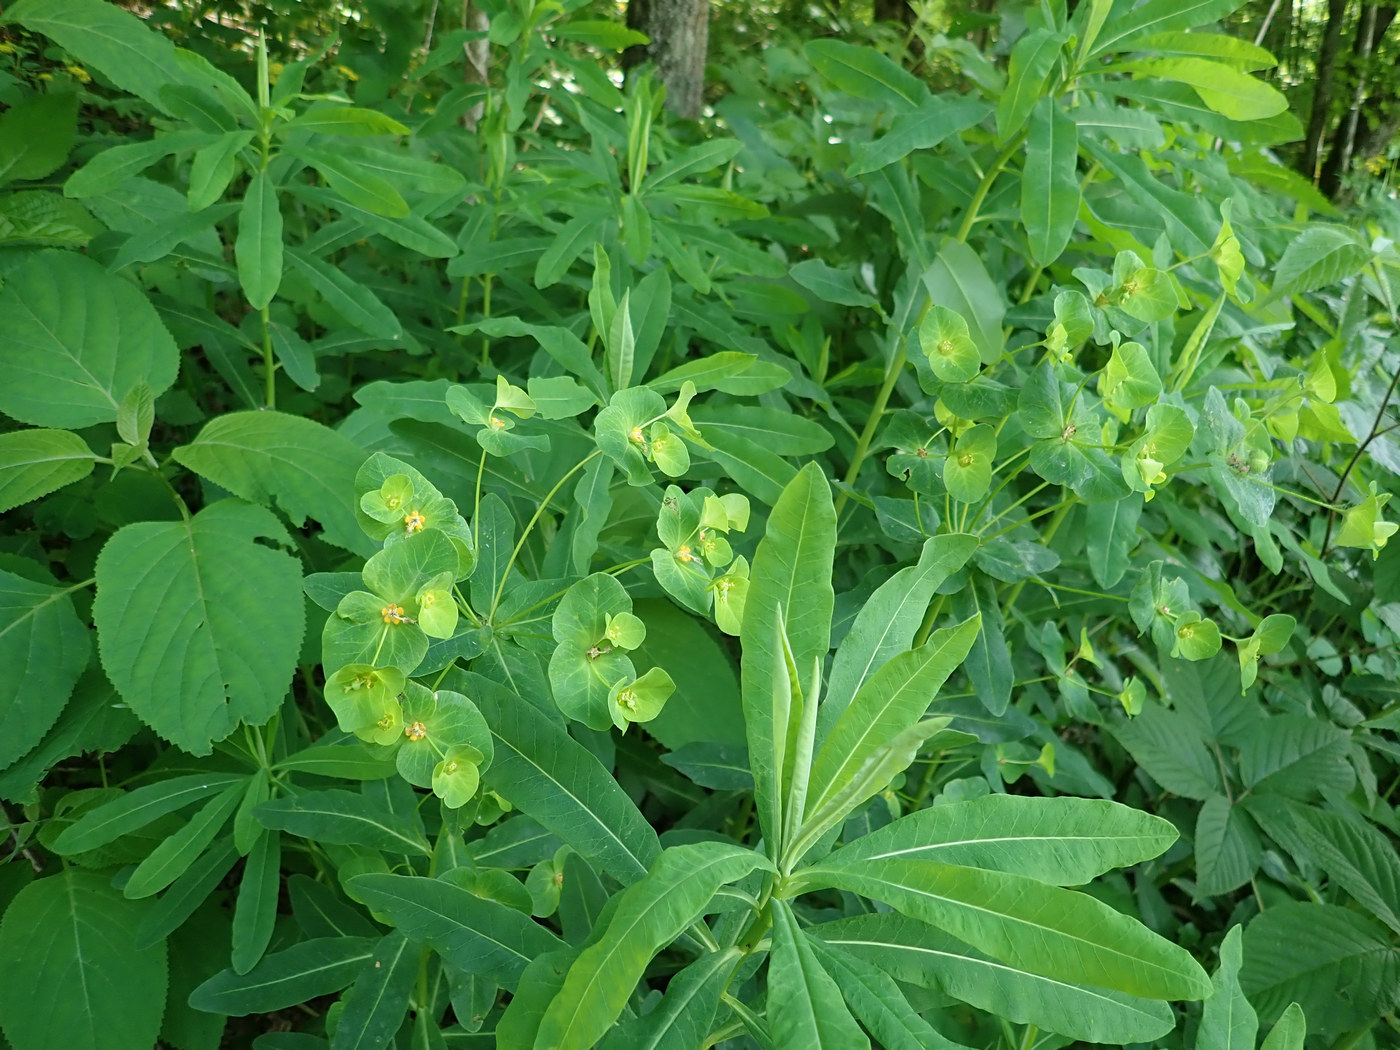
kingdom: Plantae
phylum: Tracheophyta
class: Magnoliopsida
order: Malpighiales
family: Euphorbiaceae
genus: Euphorbia
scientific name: Euphorbia purpurea
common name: Darlington's spurge
